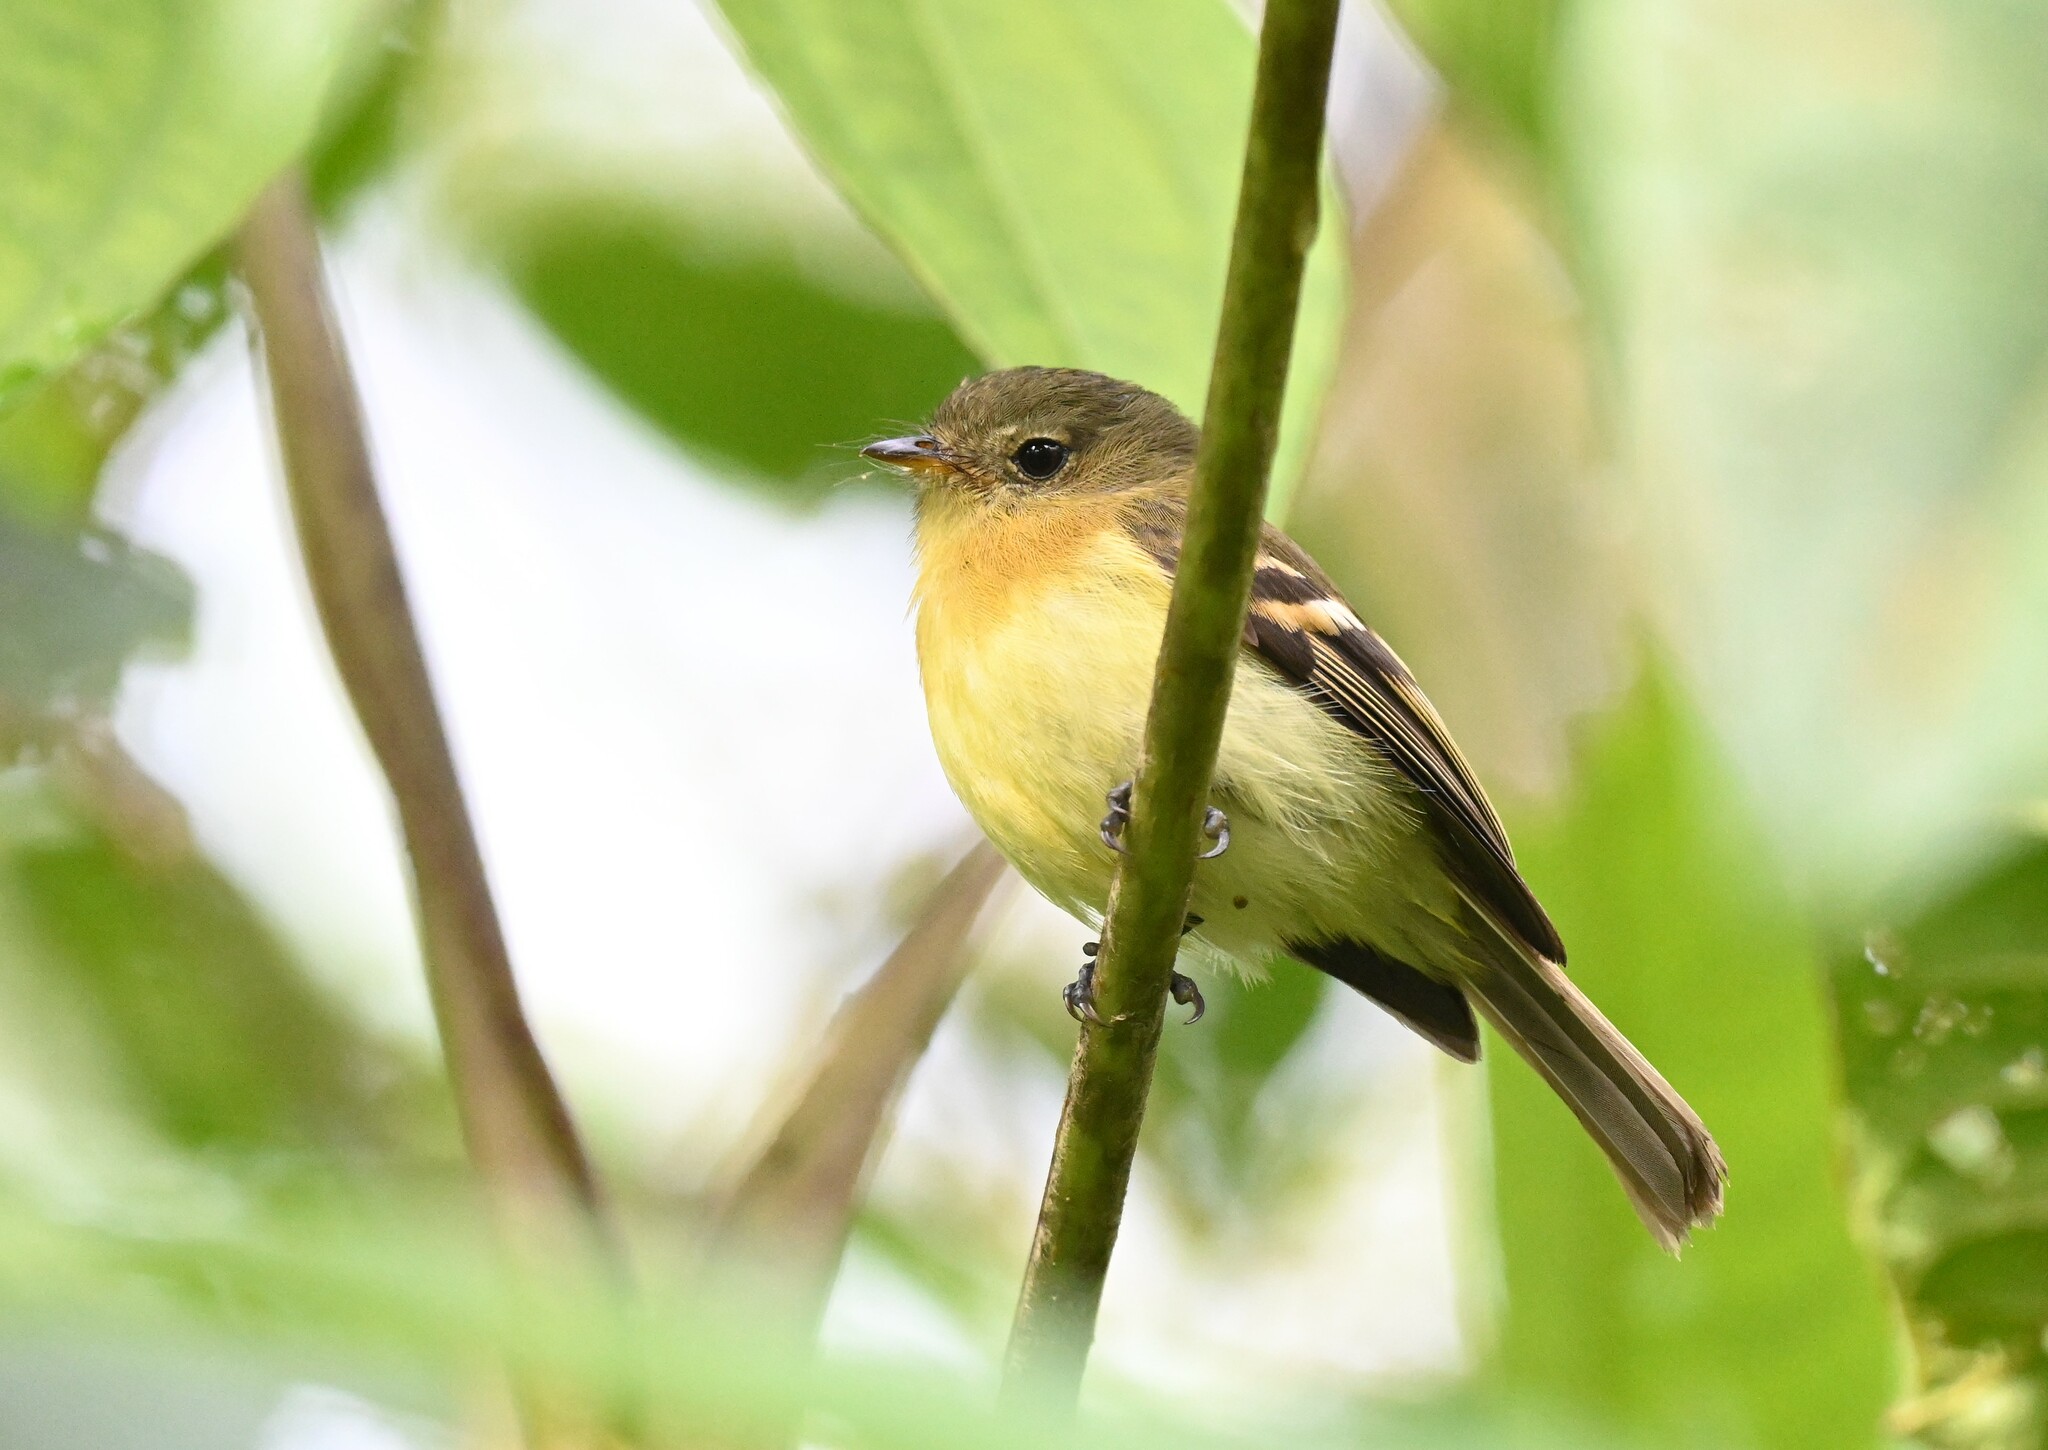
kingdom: Animalia
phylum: Chordata
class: Aves
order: Passeriformes
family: Tyrannidae
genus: Myiophobus
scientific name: Myiophobus pulcher
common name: Handsome flycatcher
